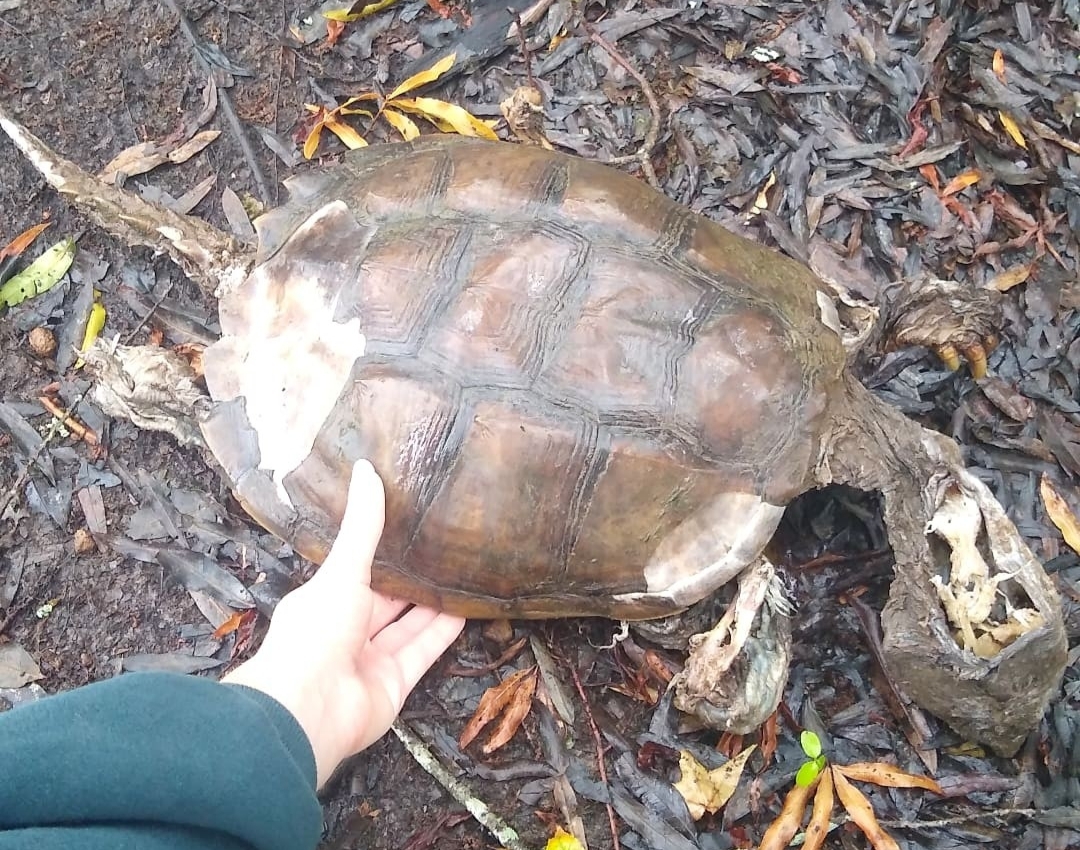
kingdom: Animalia
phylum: Chordata
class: Testudines
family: Chelydridae
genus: Chelydra
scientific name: Chelydra serpentina
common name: Common snapping turtle
